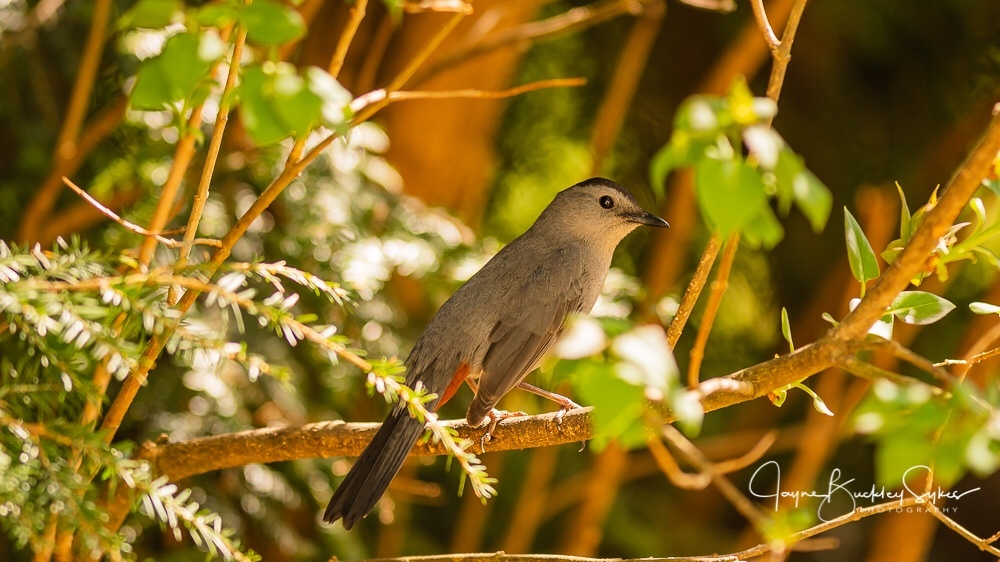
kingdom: Animalia
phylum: Chordata
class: Aves
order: Passeriformes
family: Mimidae
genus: Dumetella
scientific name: Dumetella carolinensis
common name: Gray catbird
